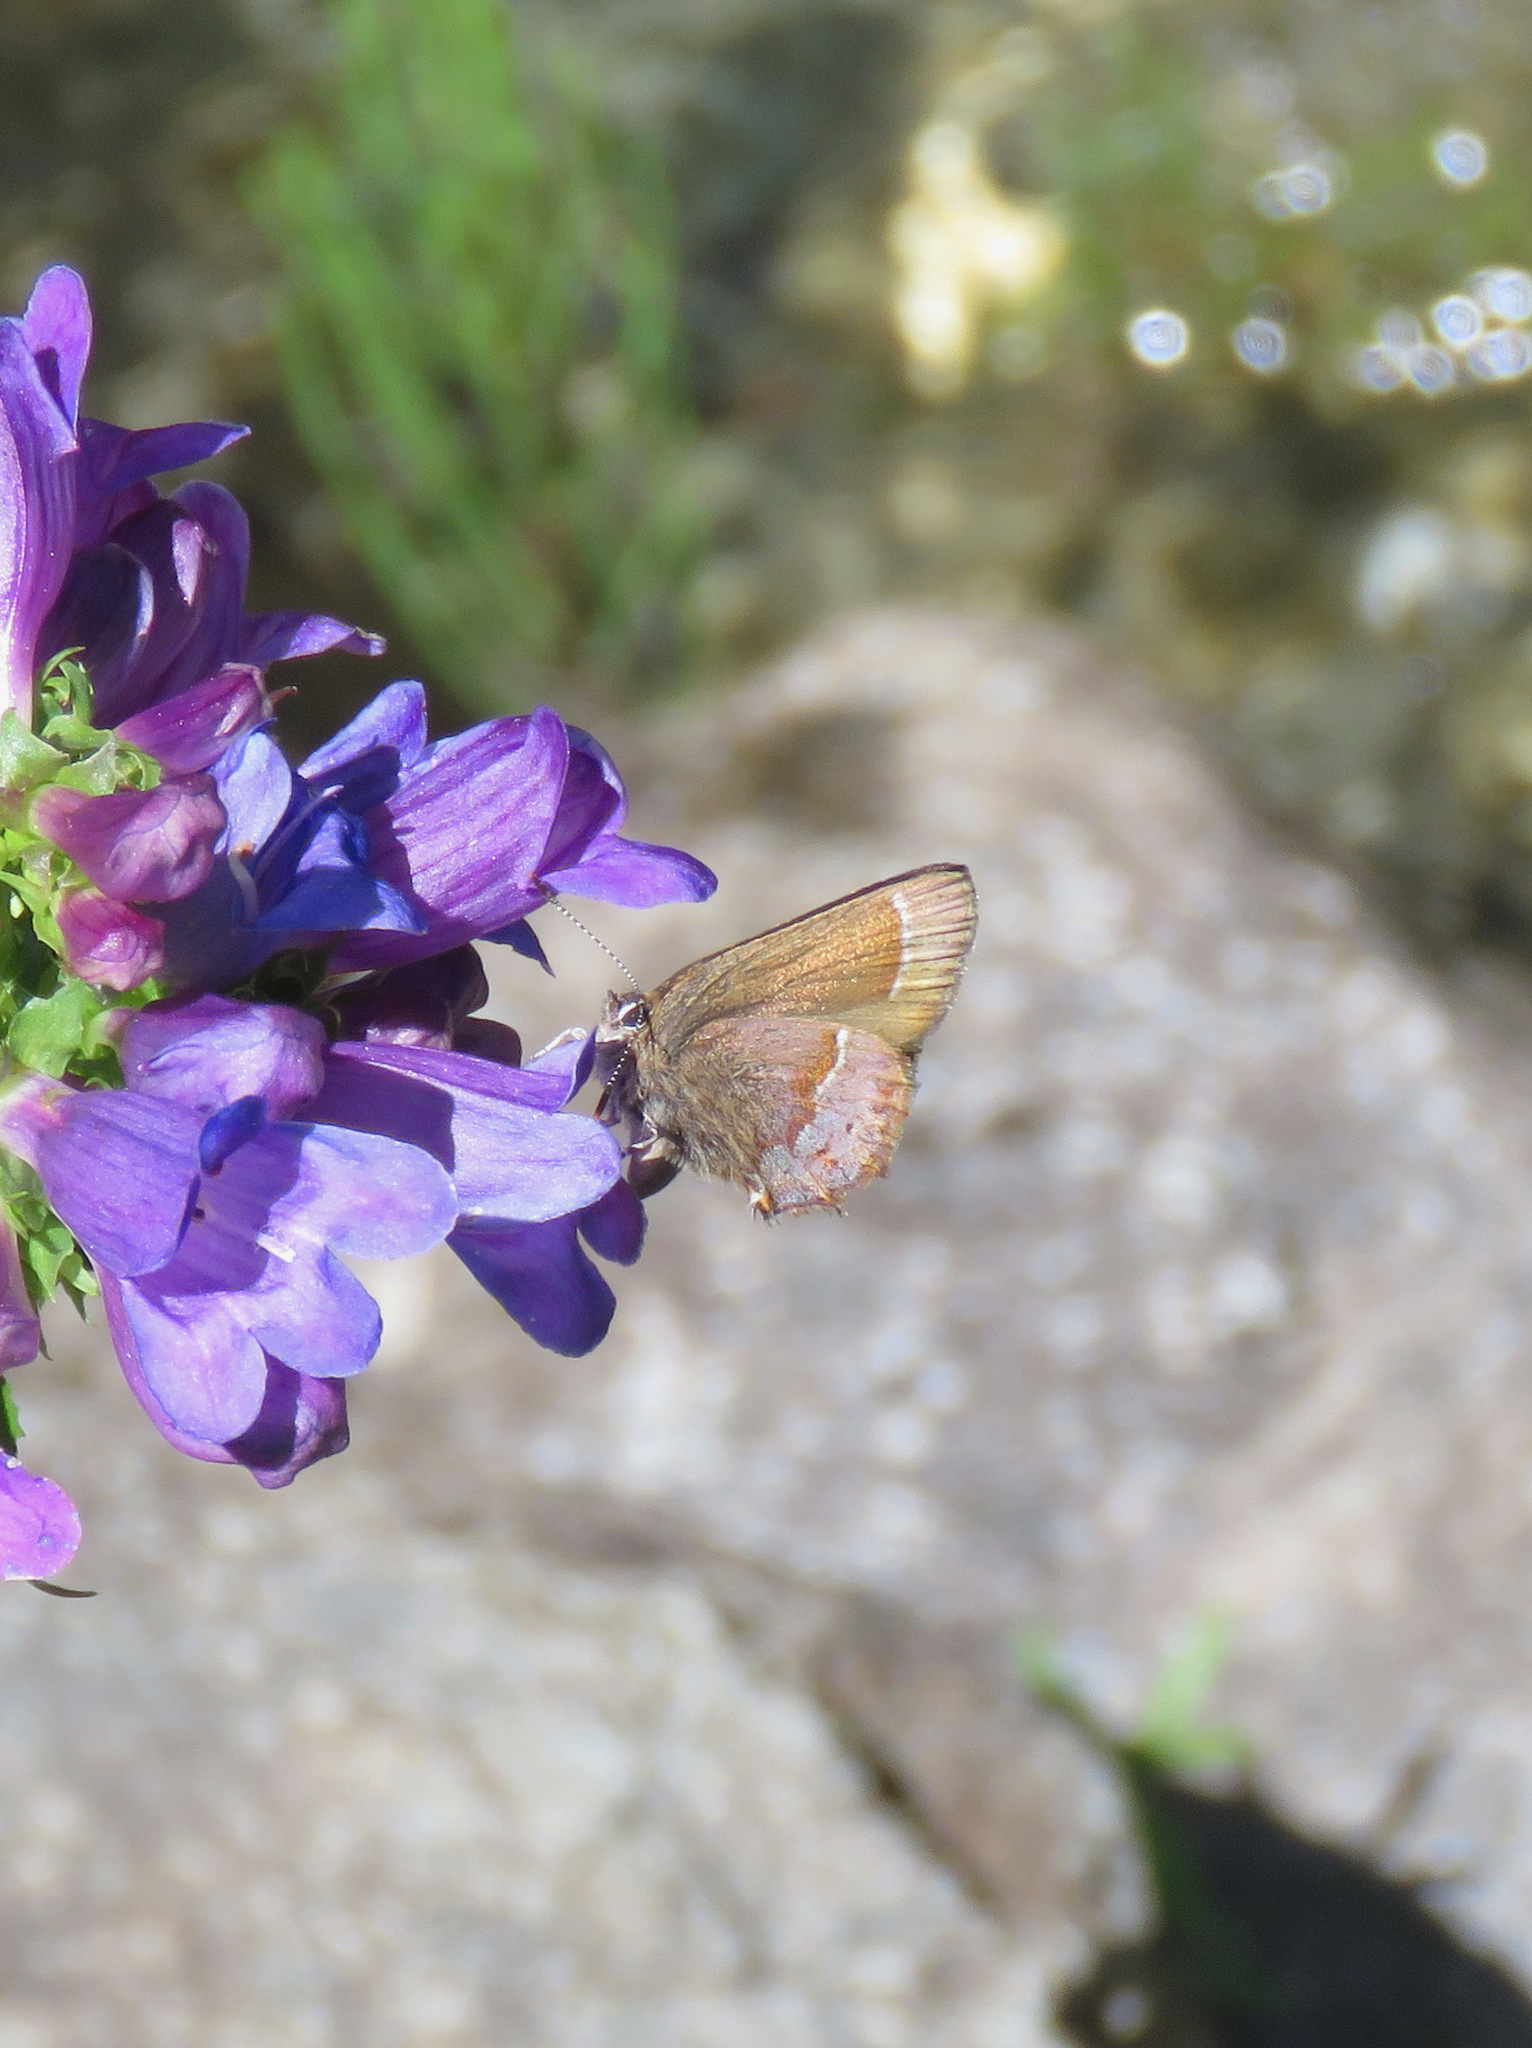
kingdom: Animalia
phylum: Arthropoda
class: Insecta
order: Lepidoptera
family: Lycaenidae
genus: Mitoura
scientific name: Mitoura gryneus
